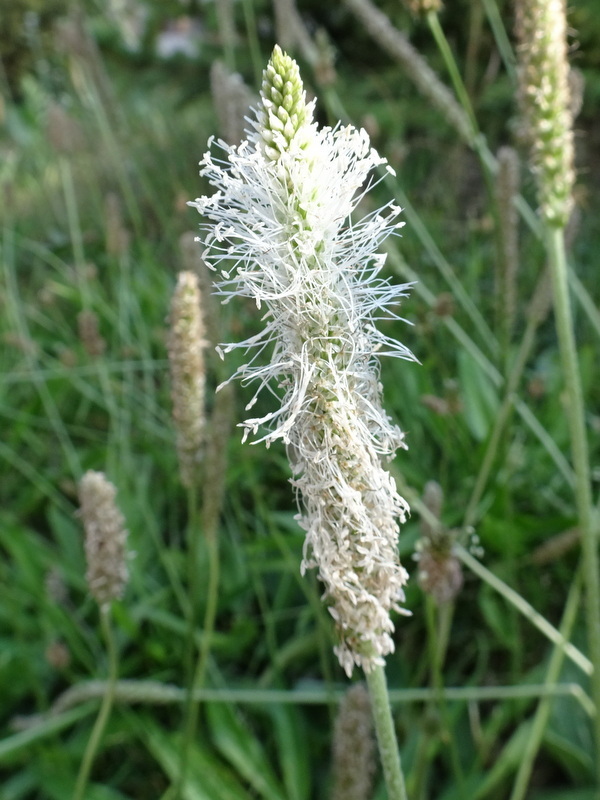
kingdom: Plantae
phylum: Tracheophyta
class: Magnoliopsida
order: Lamiales
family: Plantaginaceae
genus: Plantago
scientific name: Plantago media
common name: Hoary plantain
